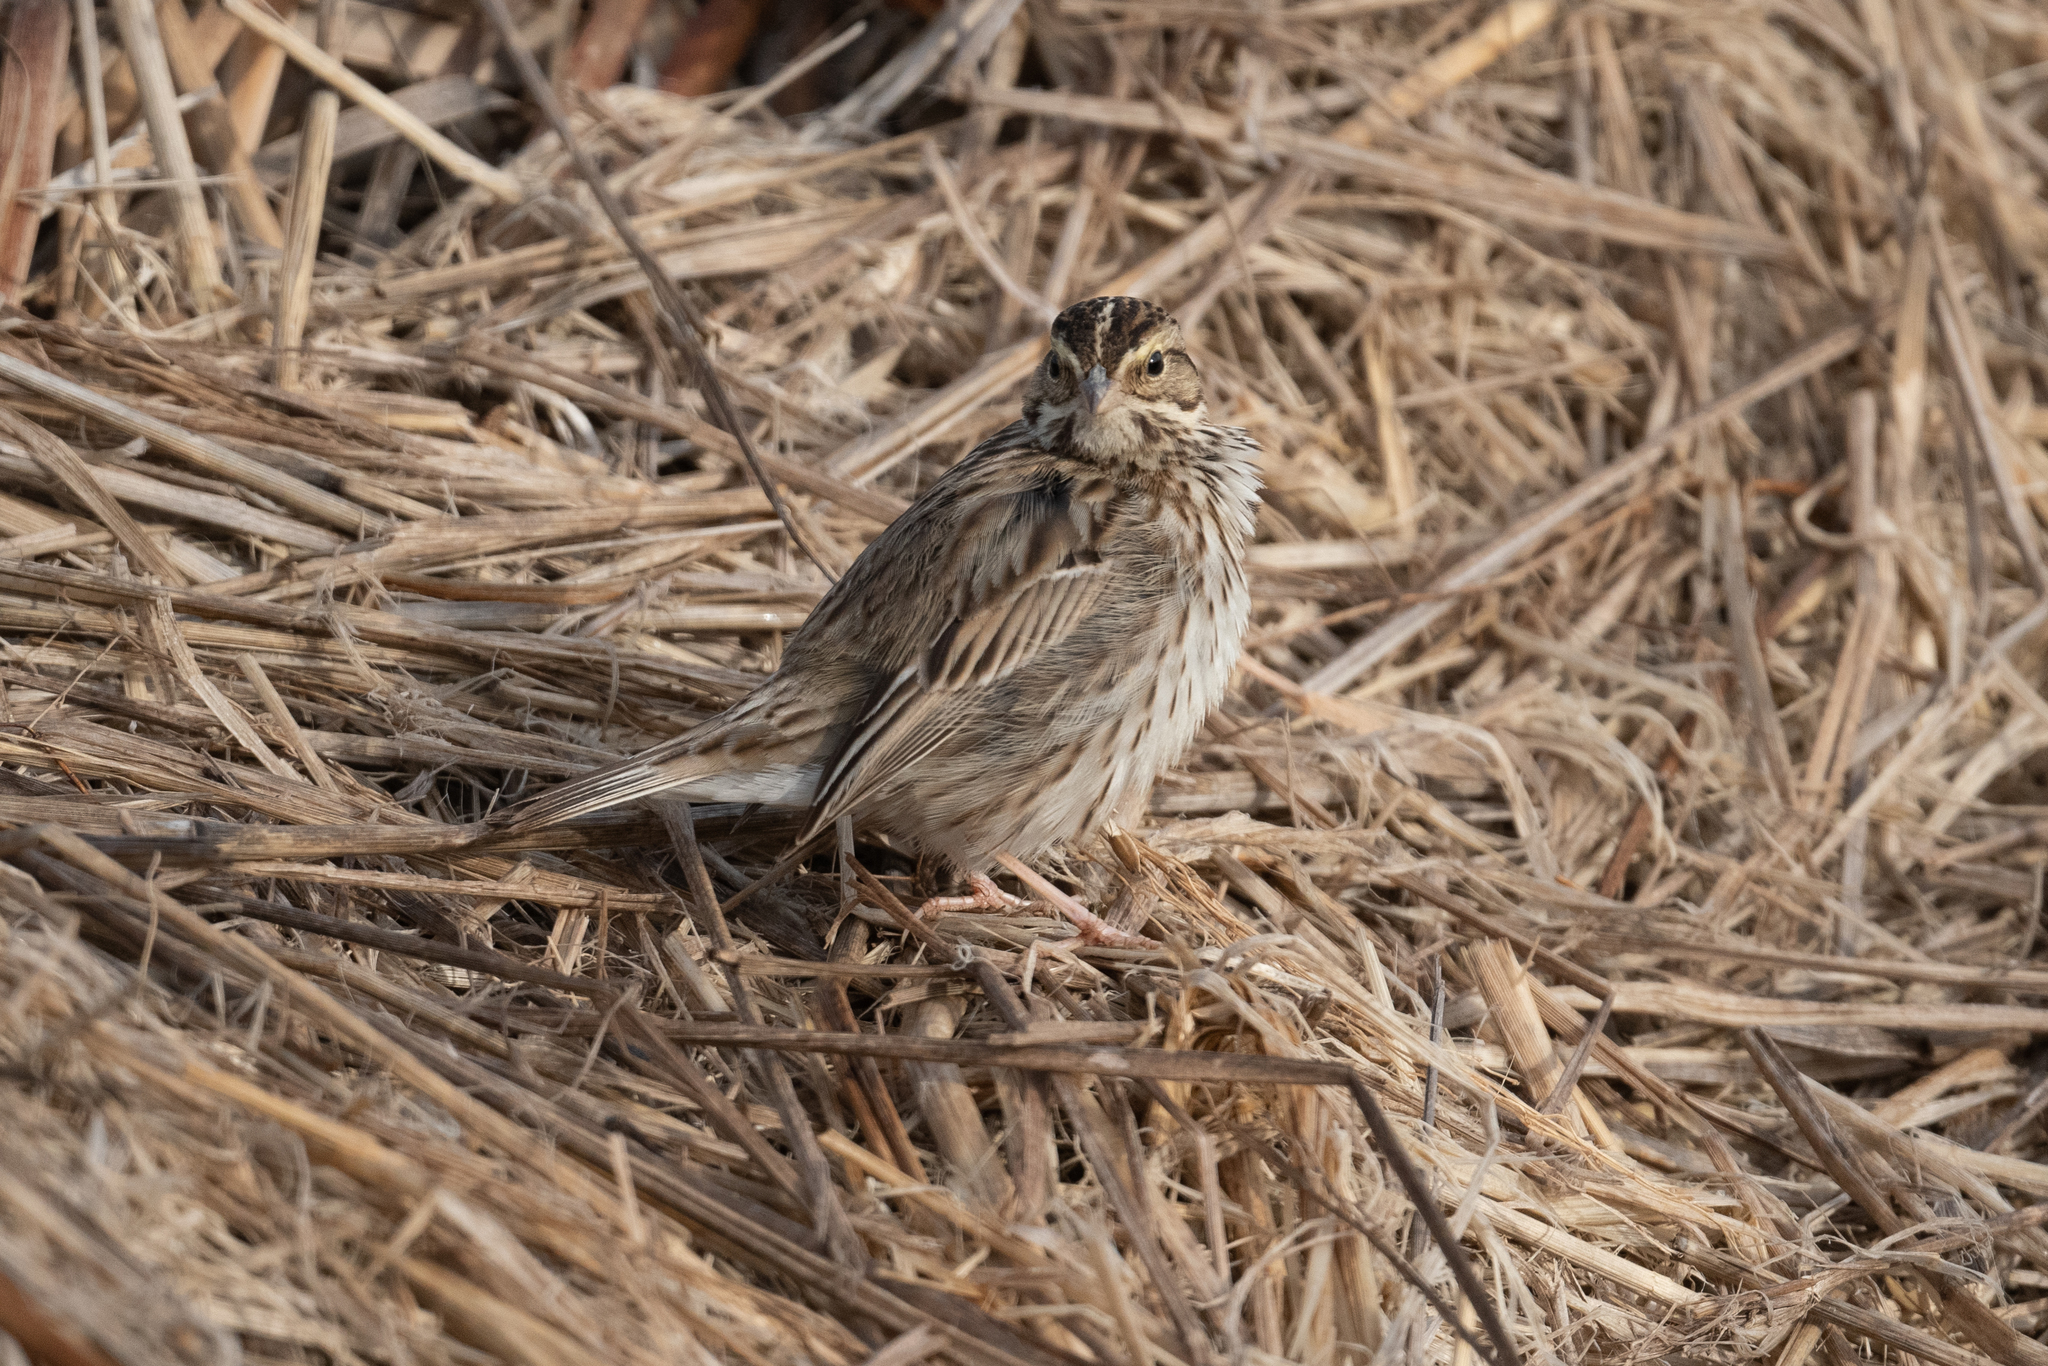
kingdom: Animalia
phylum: Chordata
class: Aves
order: Passeriformes
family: Passerellidae
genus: Passerculus
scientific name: Passerculus sandwichensis
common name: Savannah sparrow
